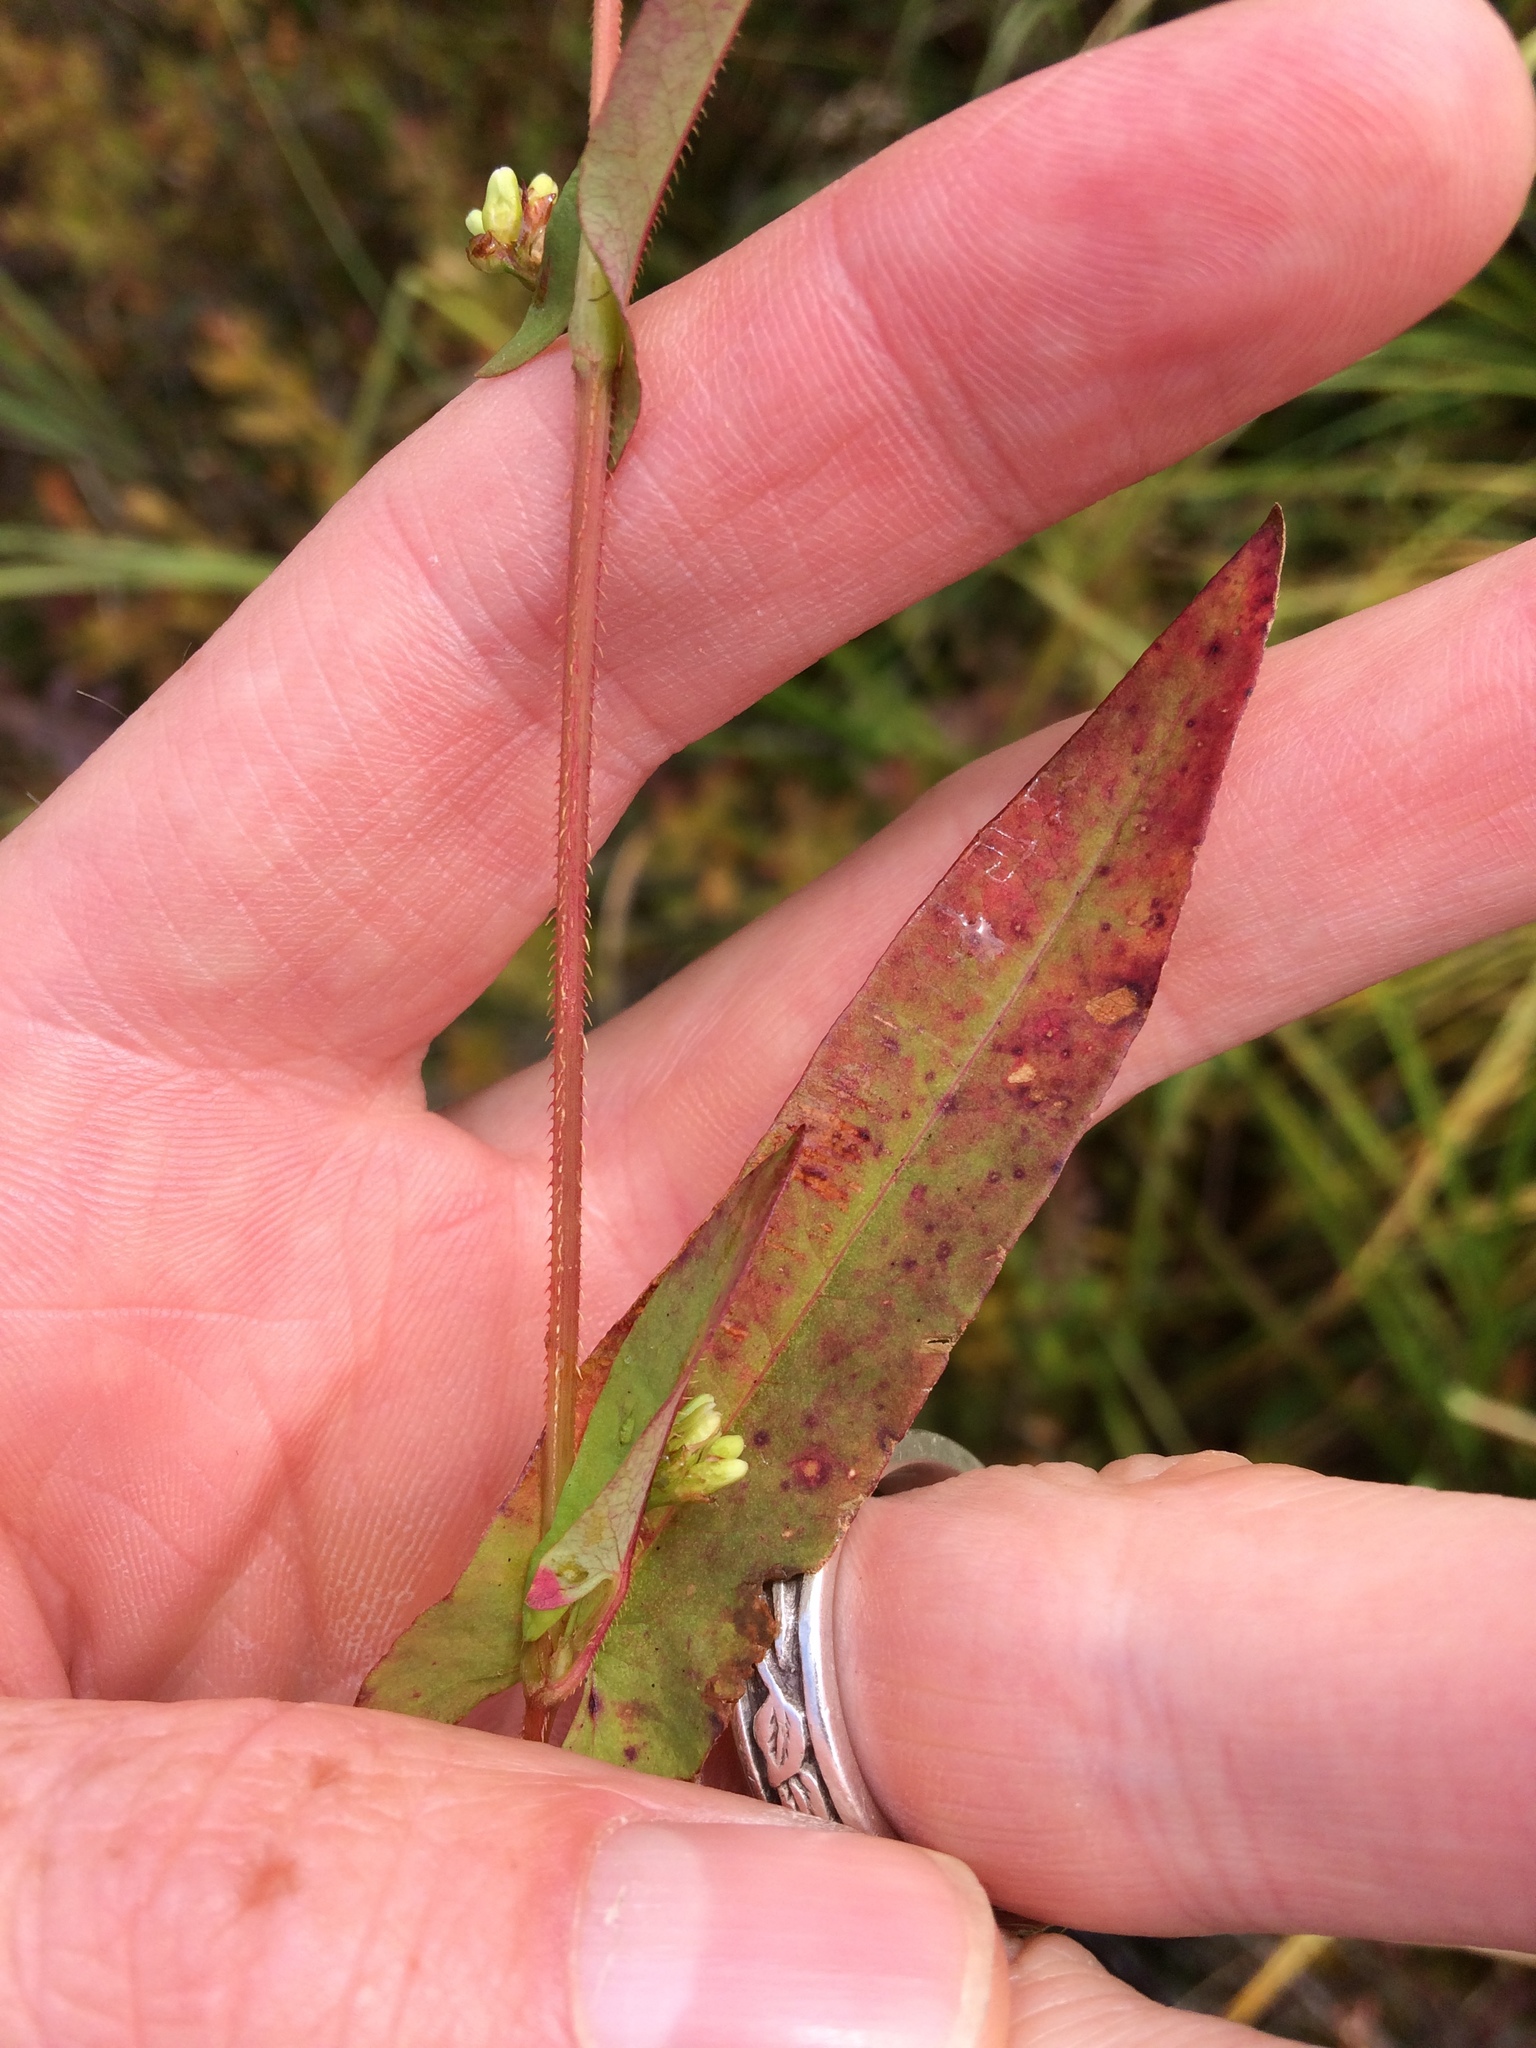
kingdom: Plantae
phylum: Tracheophyta
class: Magnoliopsida
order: Caryophyllales
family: Polygonaceae
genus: Persicaria
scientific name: Persicaria sagittata
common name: American tearthumb
